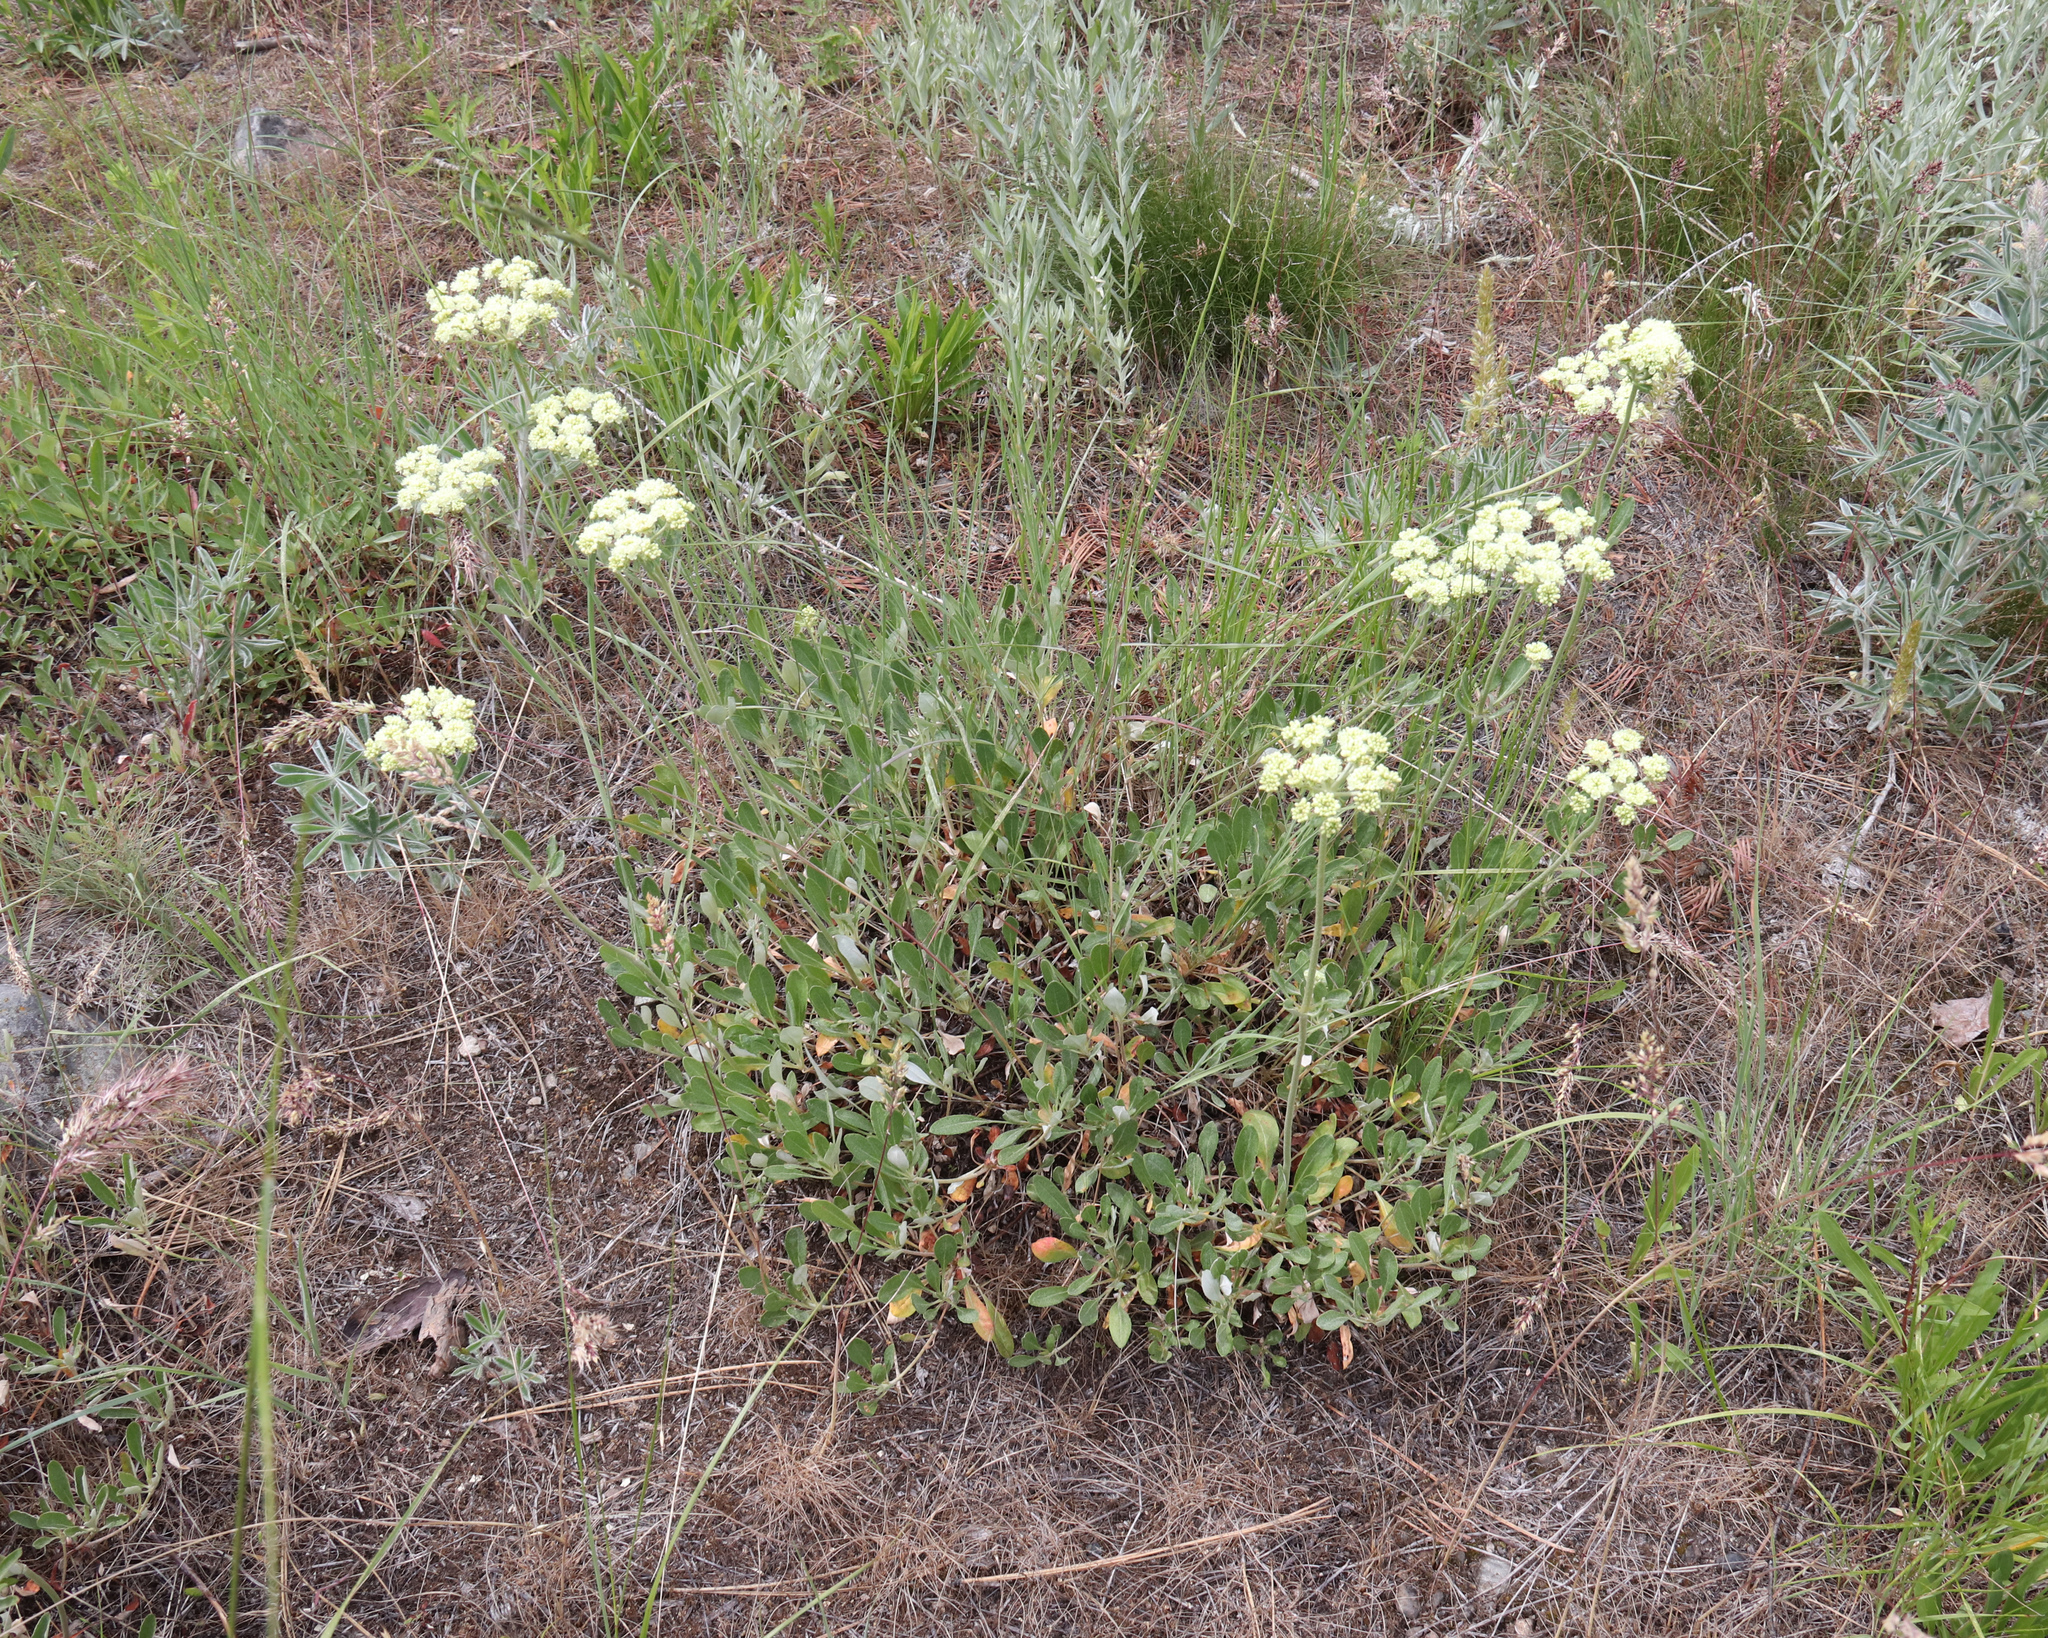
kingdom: Plantae
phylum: Tracheophyta
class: Magnoliopsida
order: Caryophyllales
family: Polygonaceae
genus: Eriogonum
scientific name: Eriogonum heracleoides
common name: Wyeth's buckwheat
